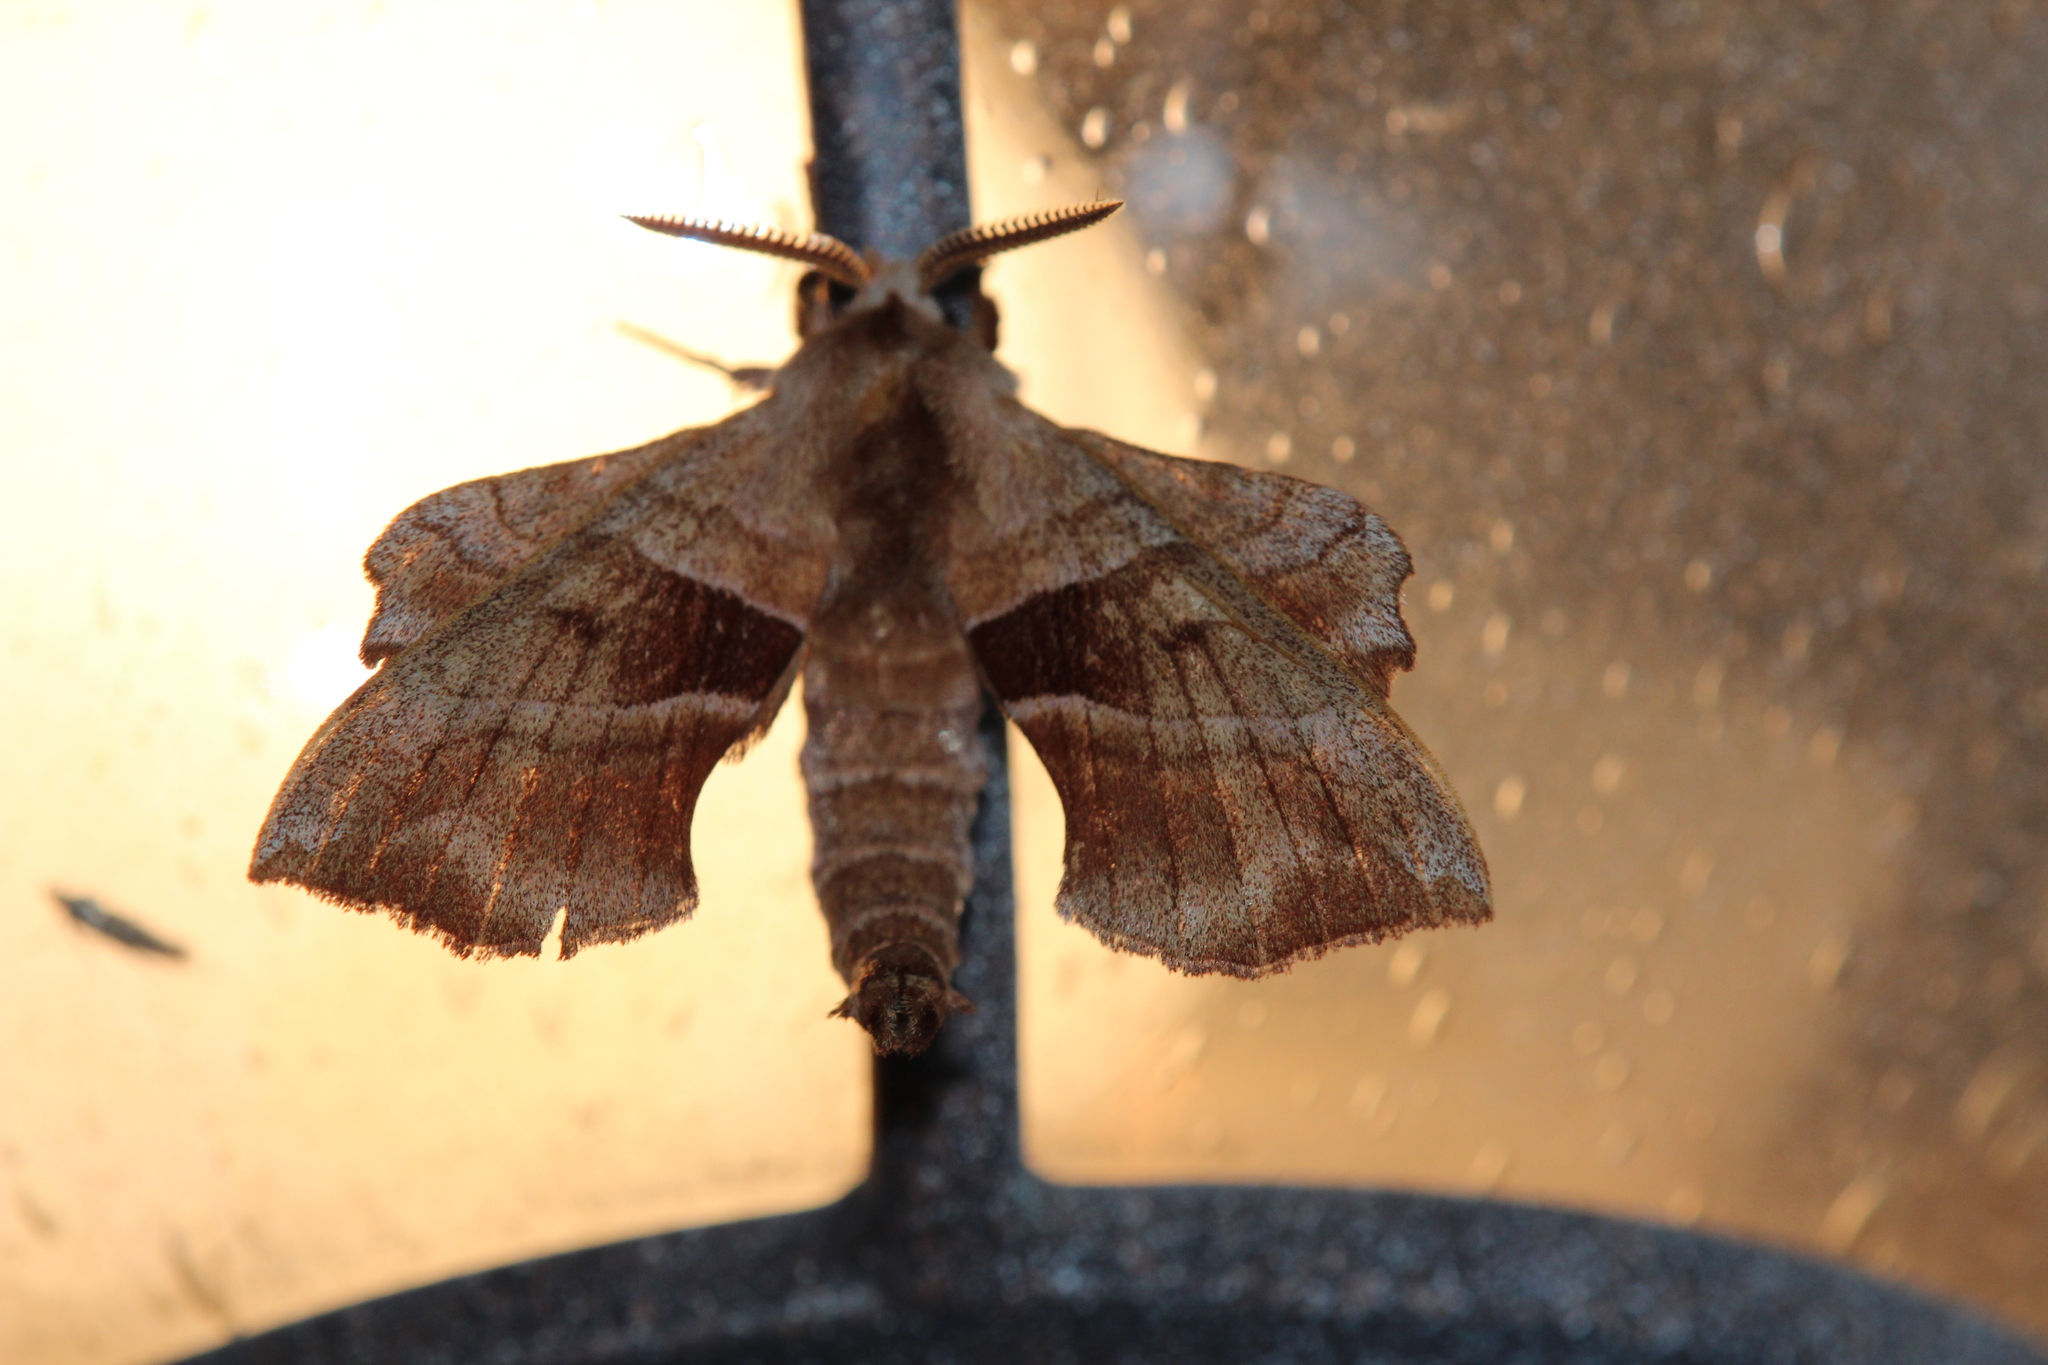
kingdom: Animalia
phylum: Arthropoda
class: Insecta
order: Lepidoptera
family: Sphingidae
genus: Amorpha
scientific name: Amorpha juglandis
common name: Walnut sphinx
